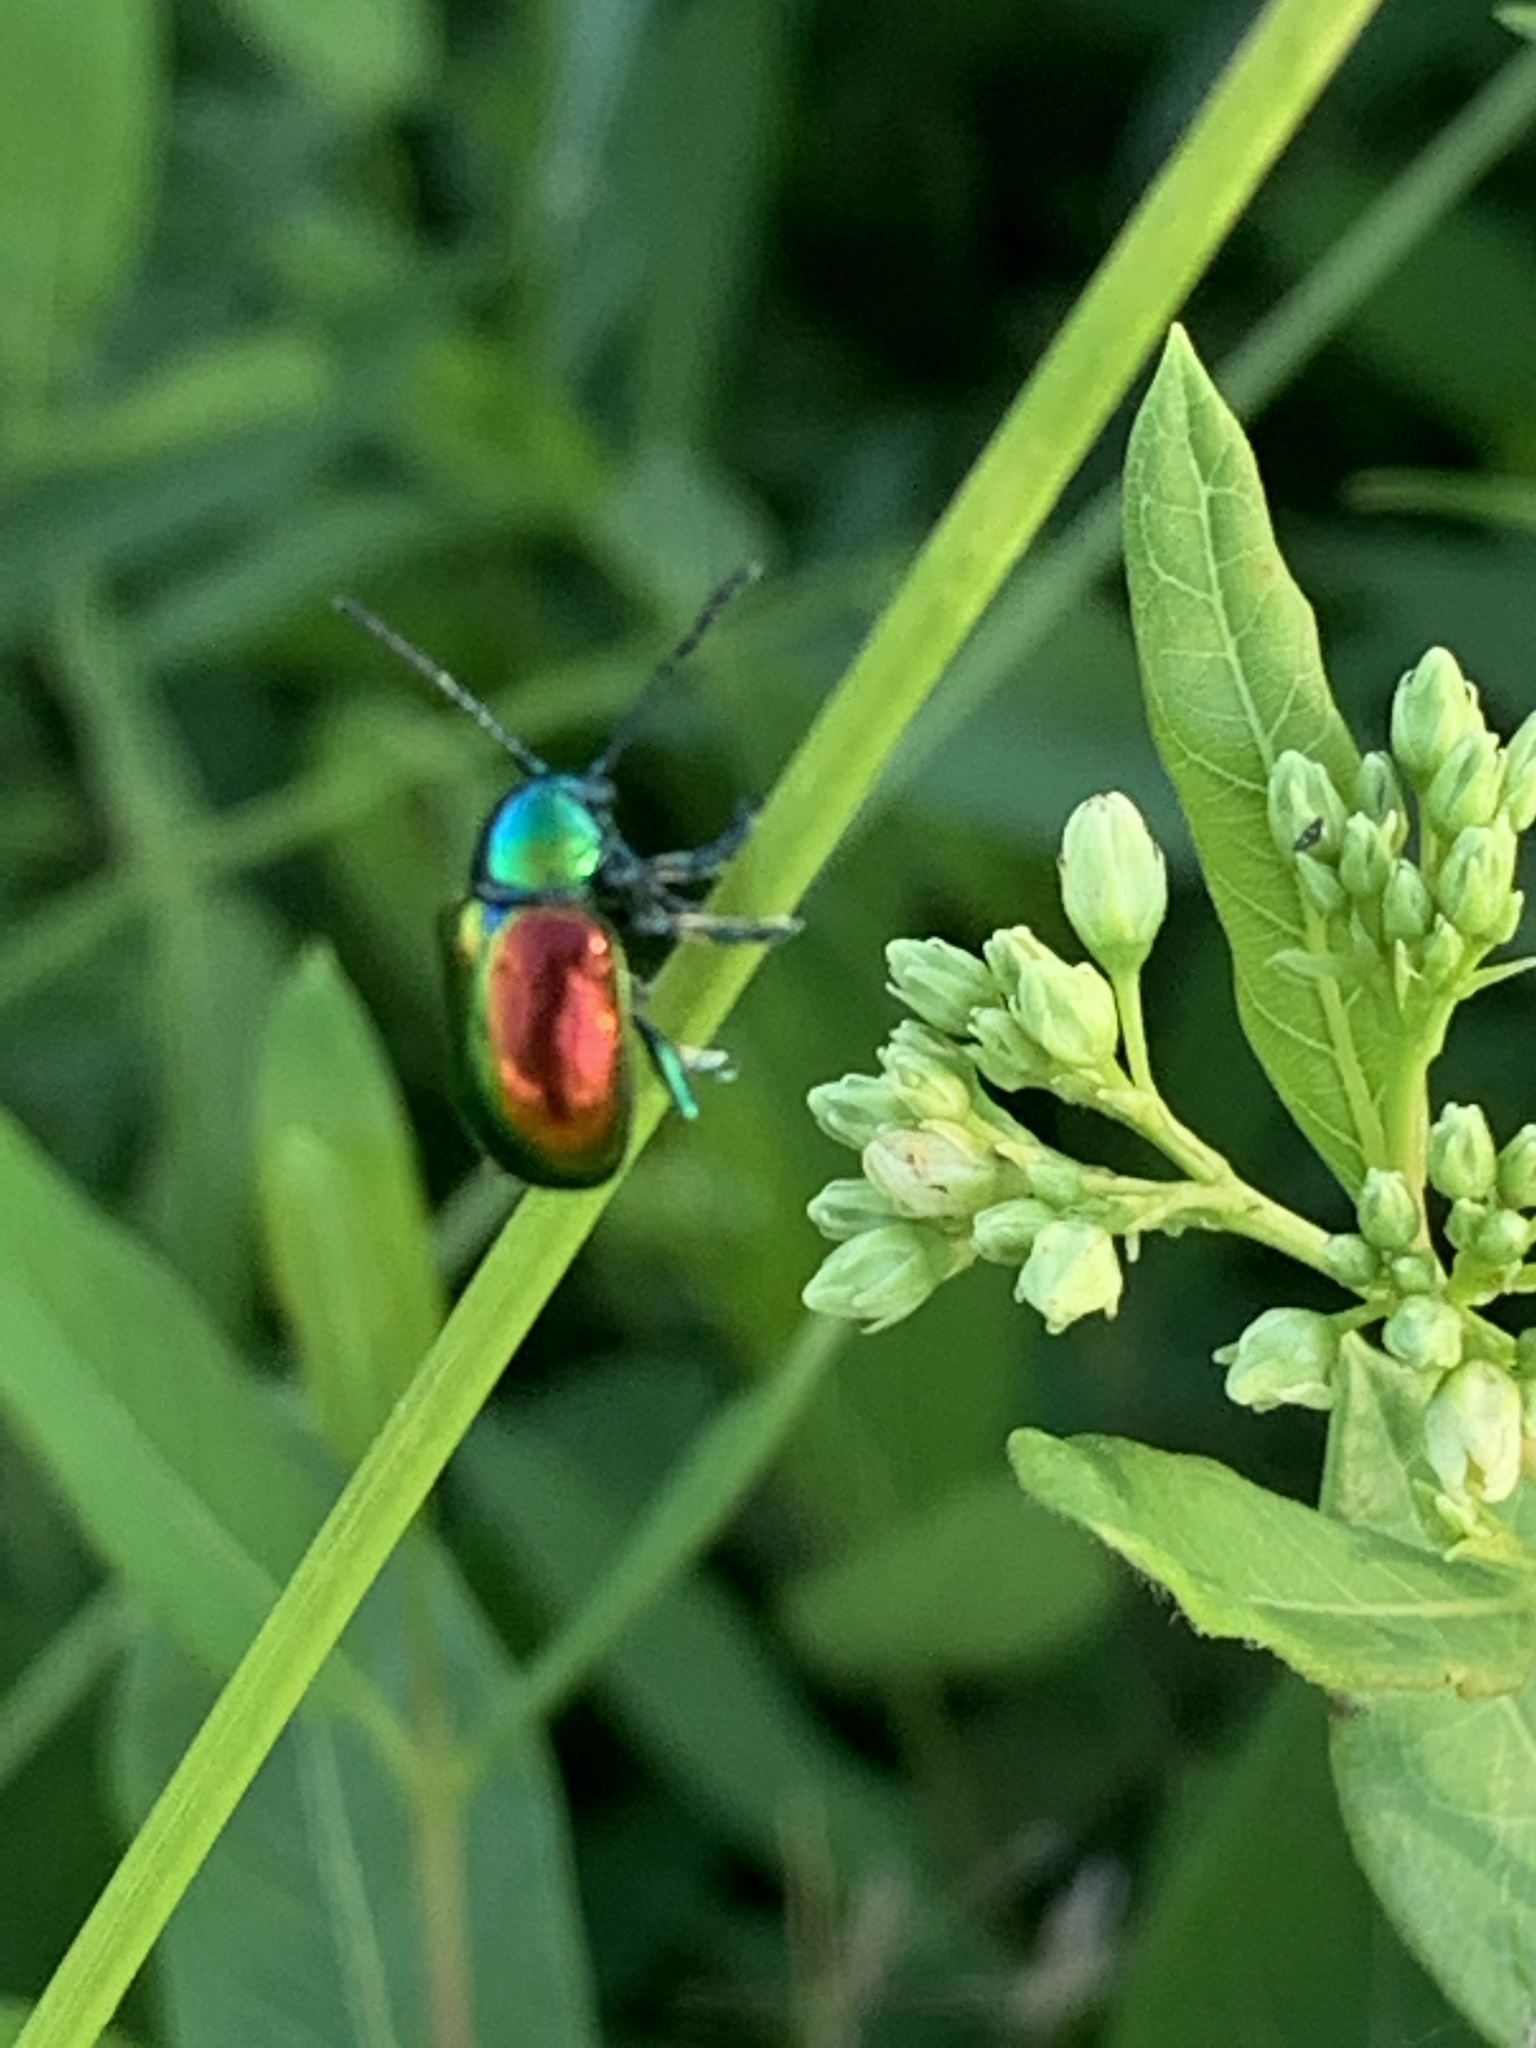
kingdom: Animalia
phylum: Arthropoda
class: Insecta
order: Coleoptera
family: Chrysomelidae
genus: Chrysochus
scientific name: Chrysochus auratus
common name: Dogbane leaf beetle
